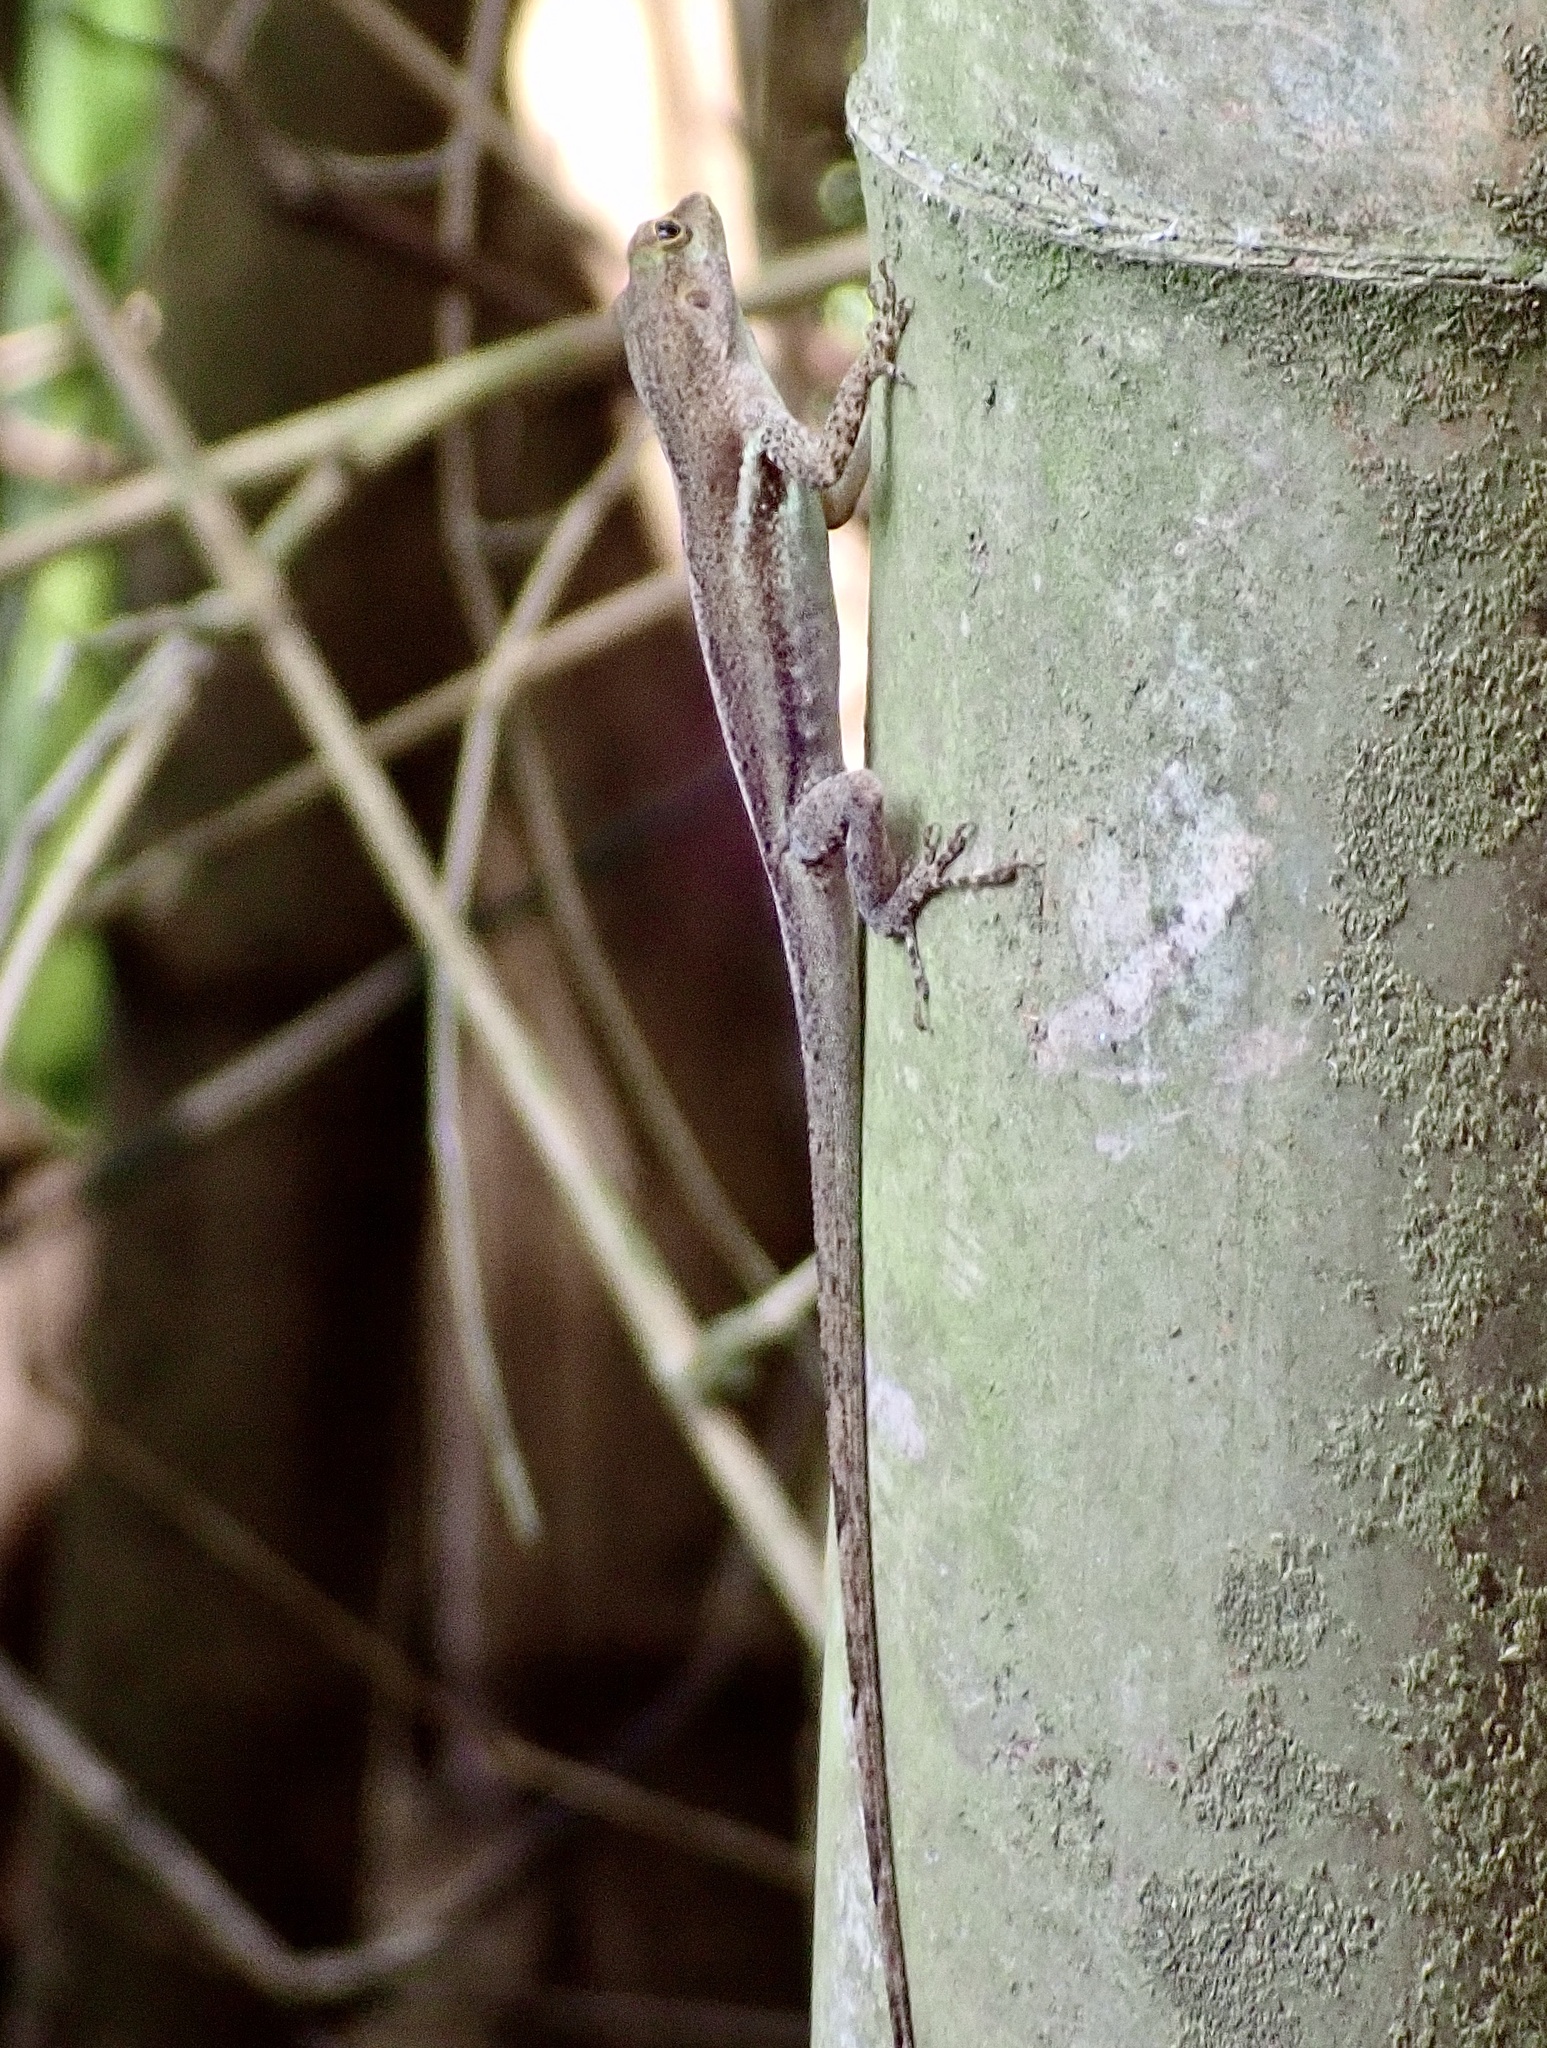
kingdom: Animalia
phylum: Chordata
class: Squamata
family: Dactyloidae
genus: Anolis
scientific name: Anolis luciae
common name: St. lucia anole
